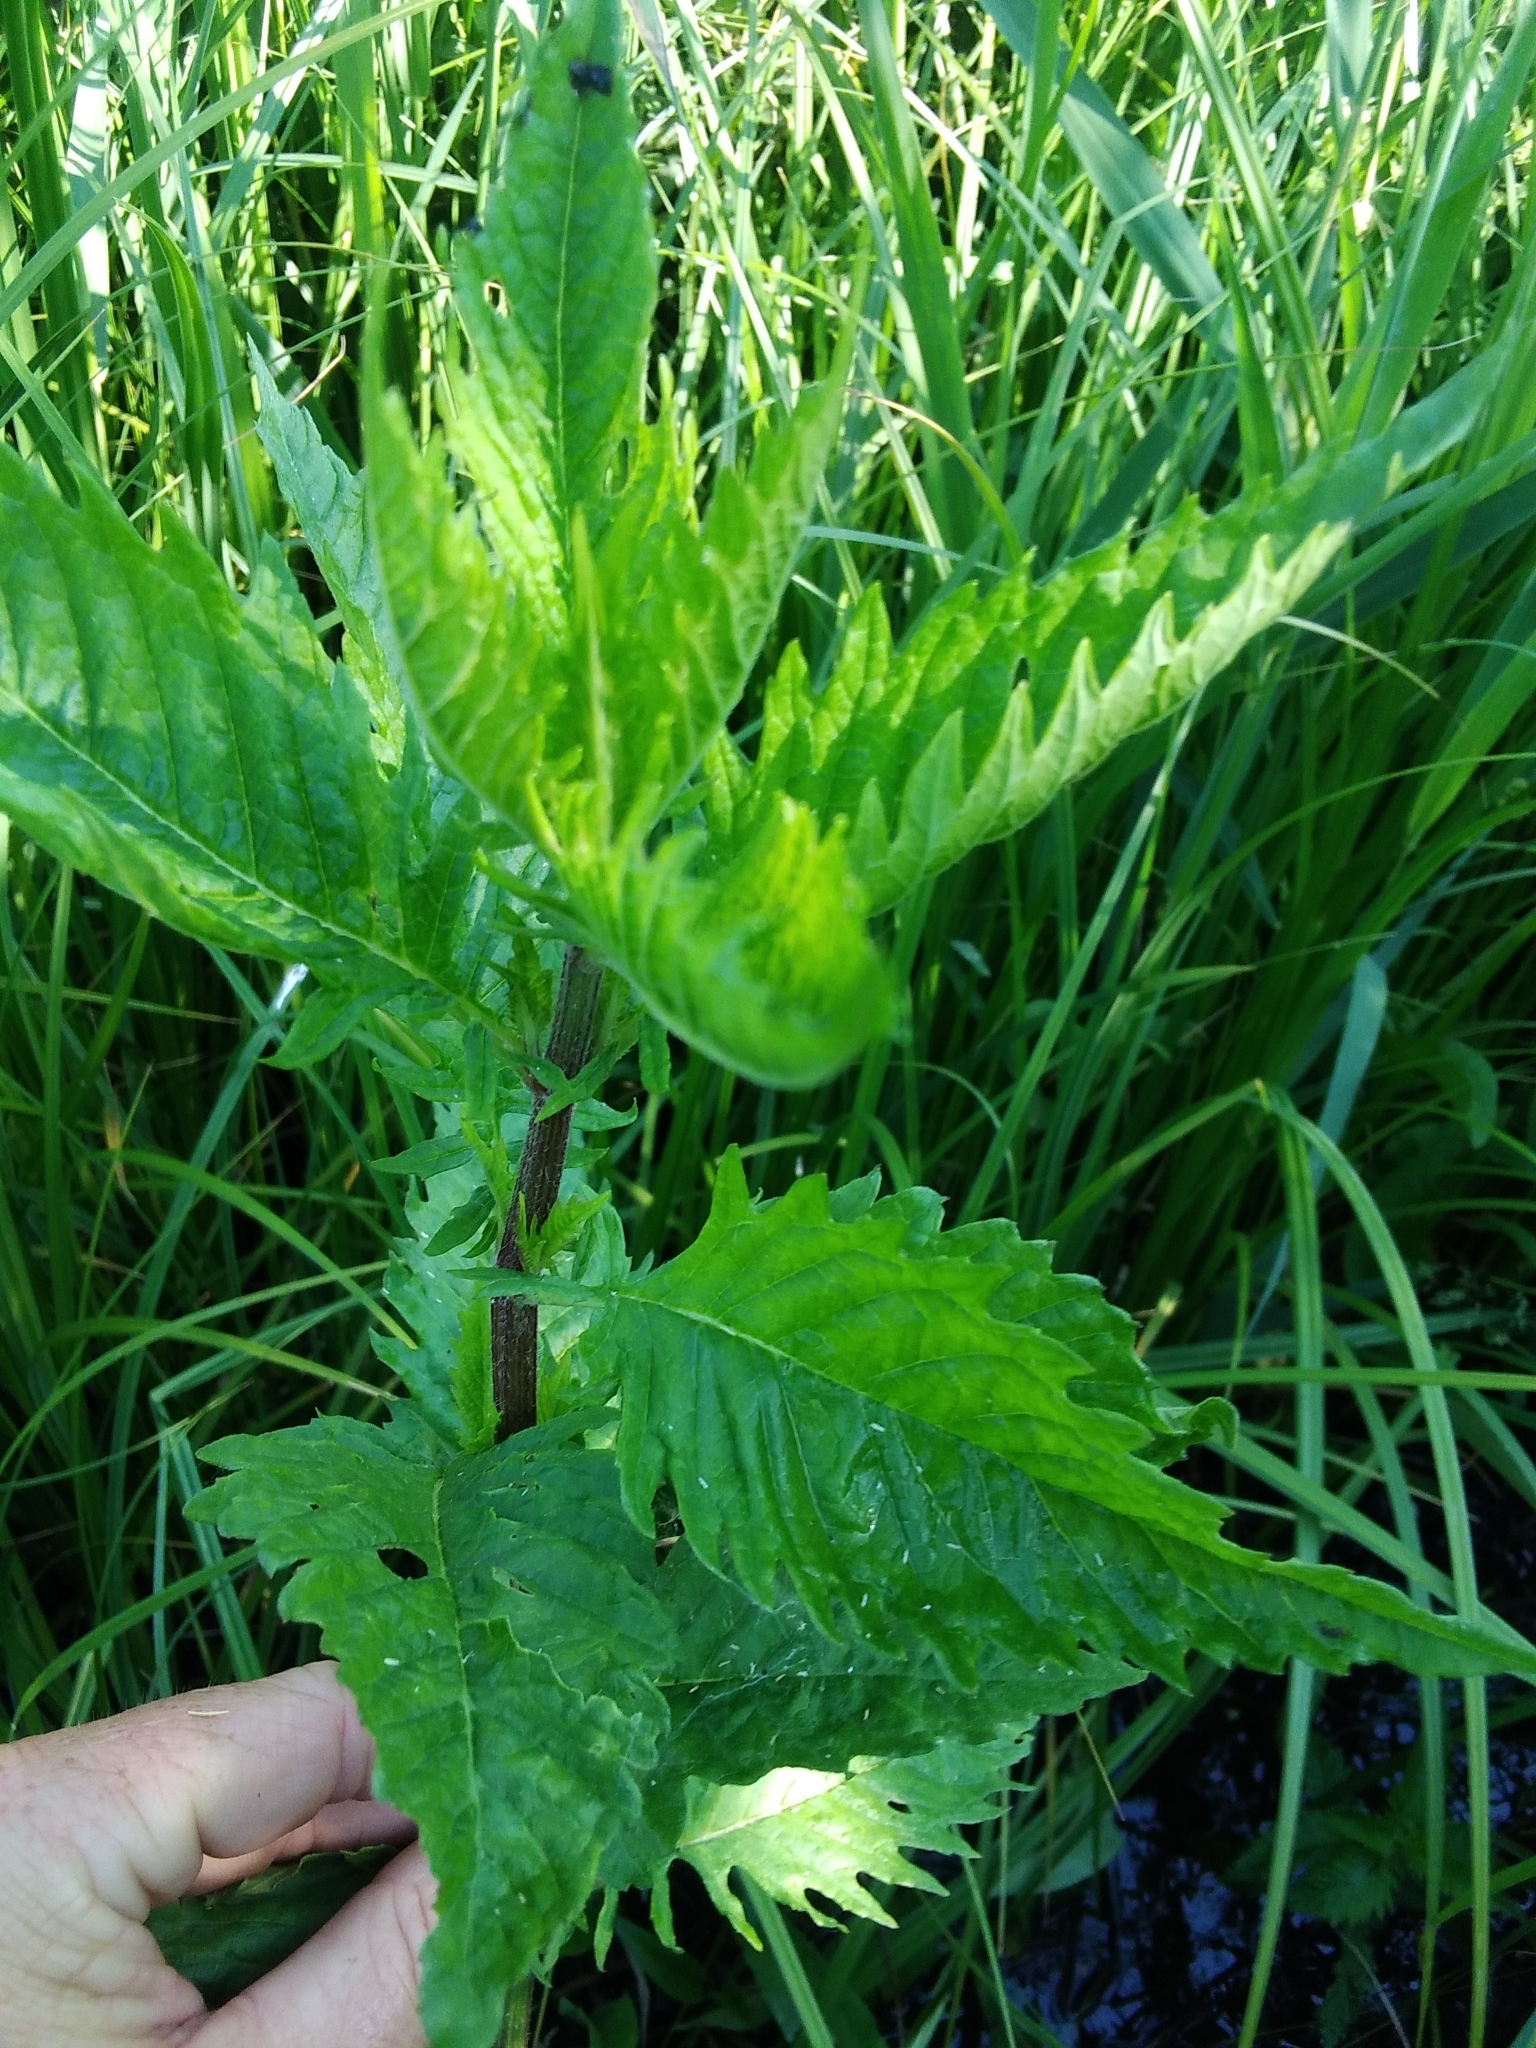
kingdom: Plantae
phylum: Tracheophyta
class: Magnoliopsida
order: Lamiales
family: Lamiaceae
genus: Lycopus
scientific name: Lycopus europaeus
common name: European bugleweed
